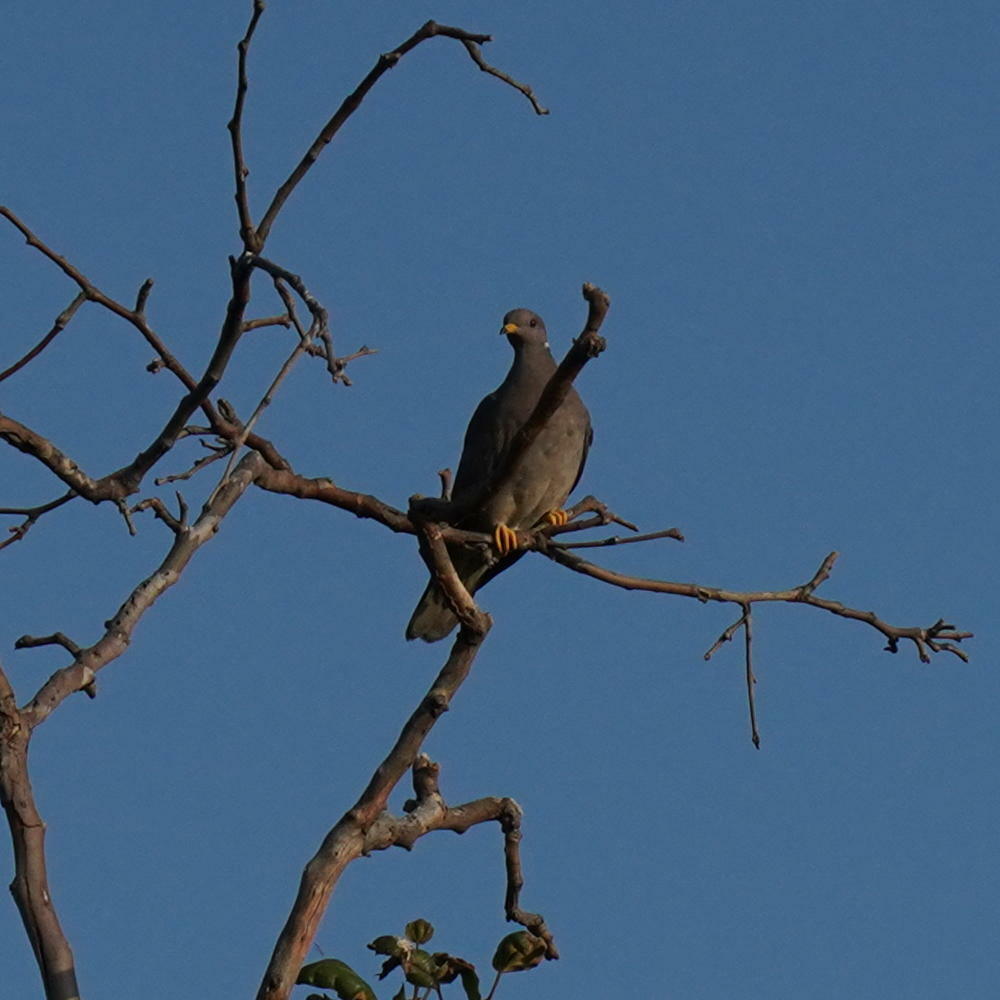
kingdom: Animalia
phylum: Chordata
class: Aves
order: Columbiformes
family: Columbidae
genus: Patagioenas
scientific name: Patagioenas fasciata
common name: Band-tailed pigeon
